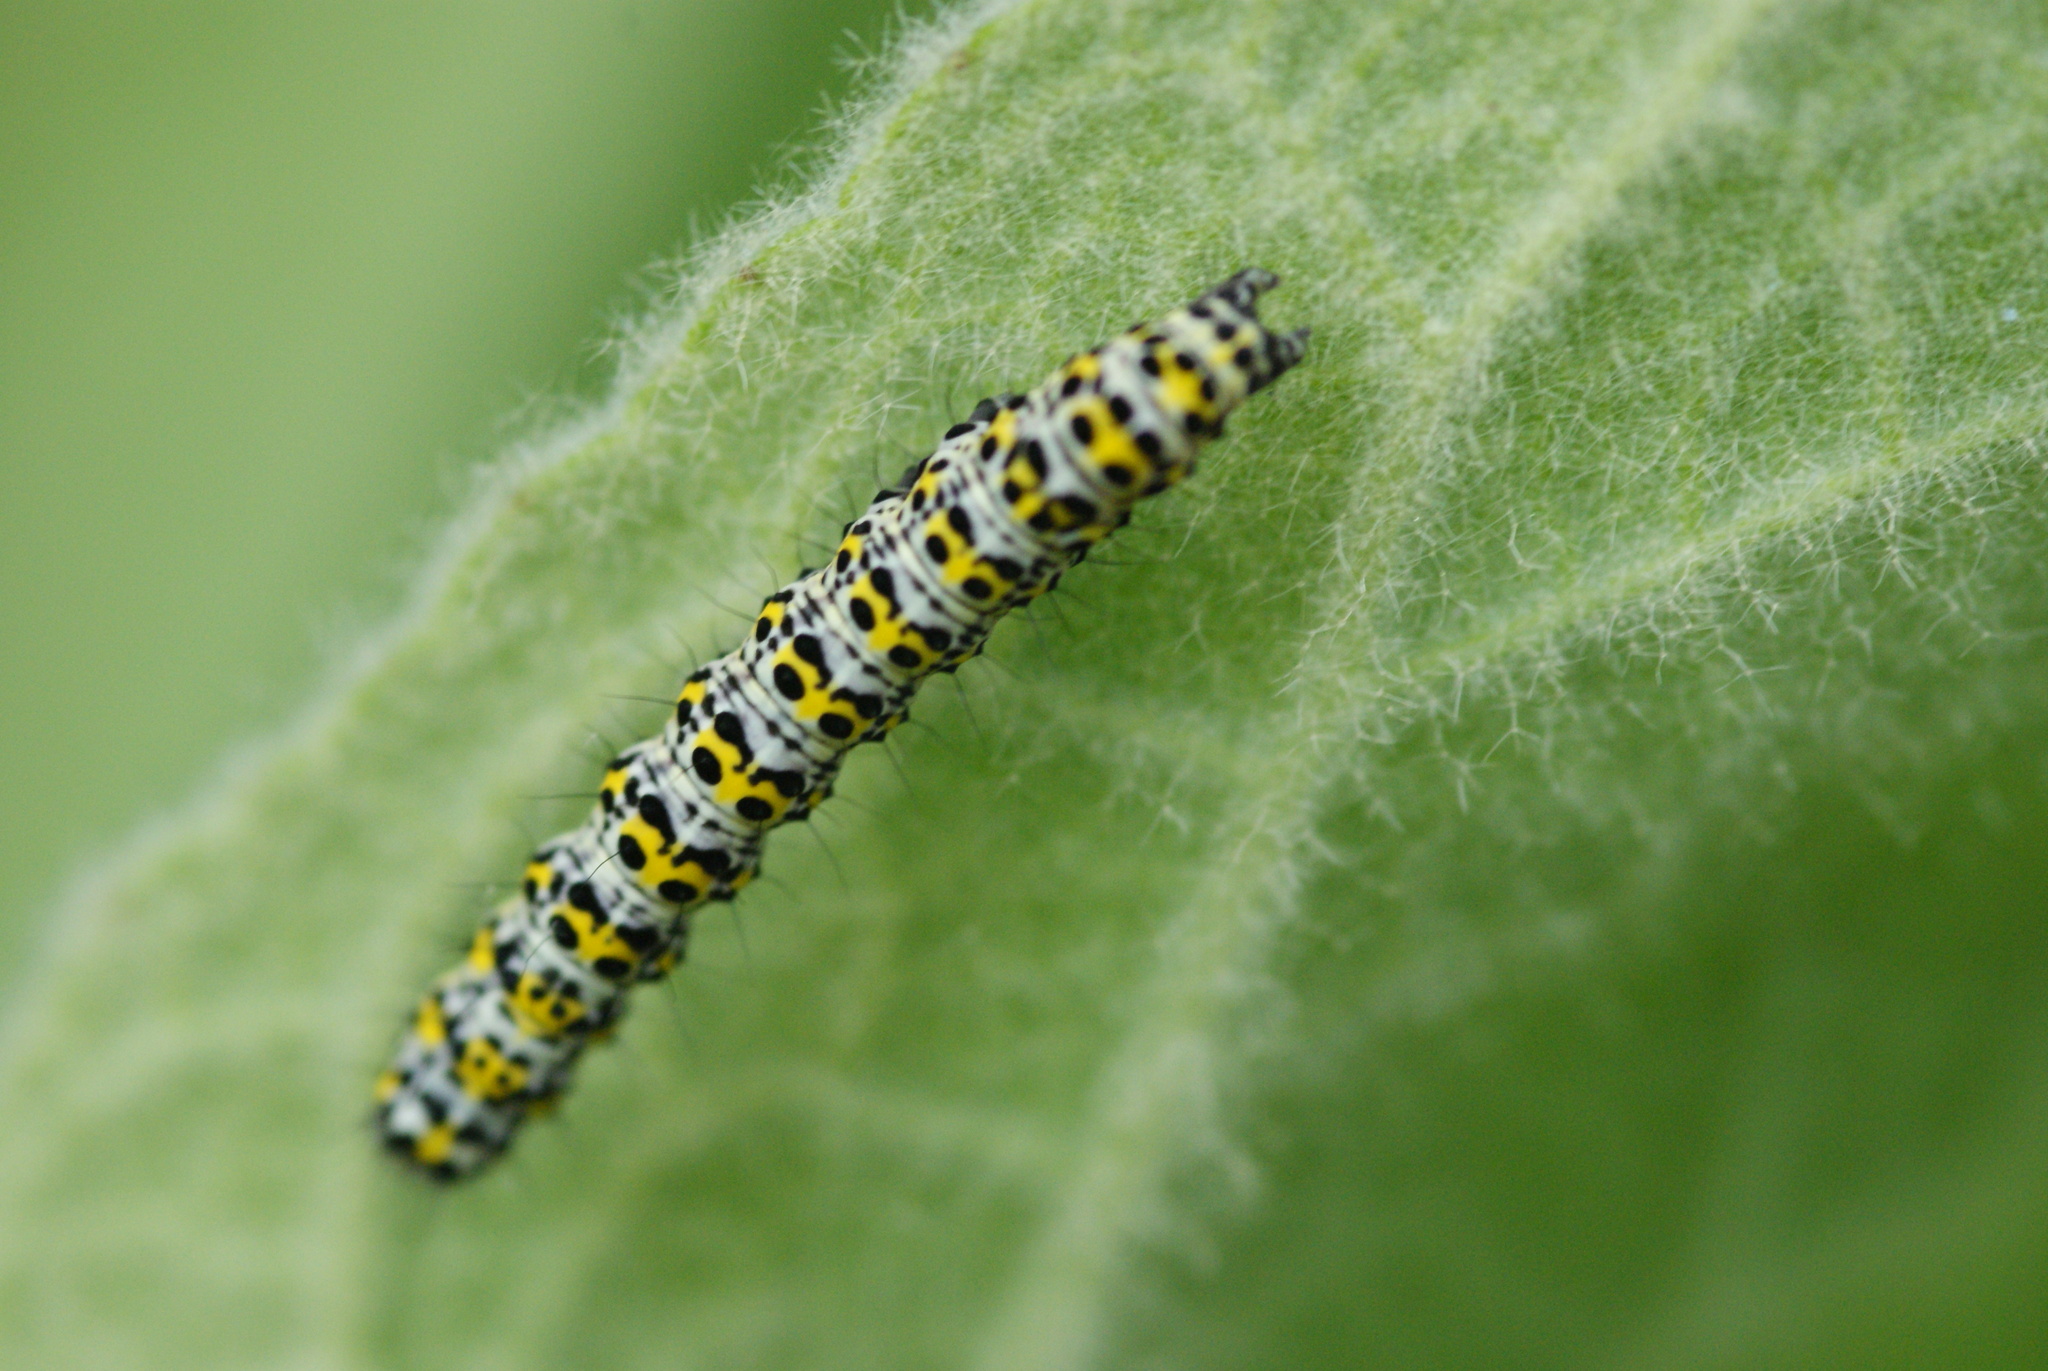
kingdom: Animalia
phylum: Arthropoda
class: Insecta
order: Lepidoptera
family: Noctuidae
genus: Cucullia
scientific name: Cucullia verbasci
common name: Mullein
